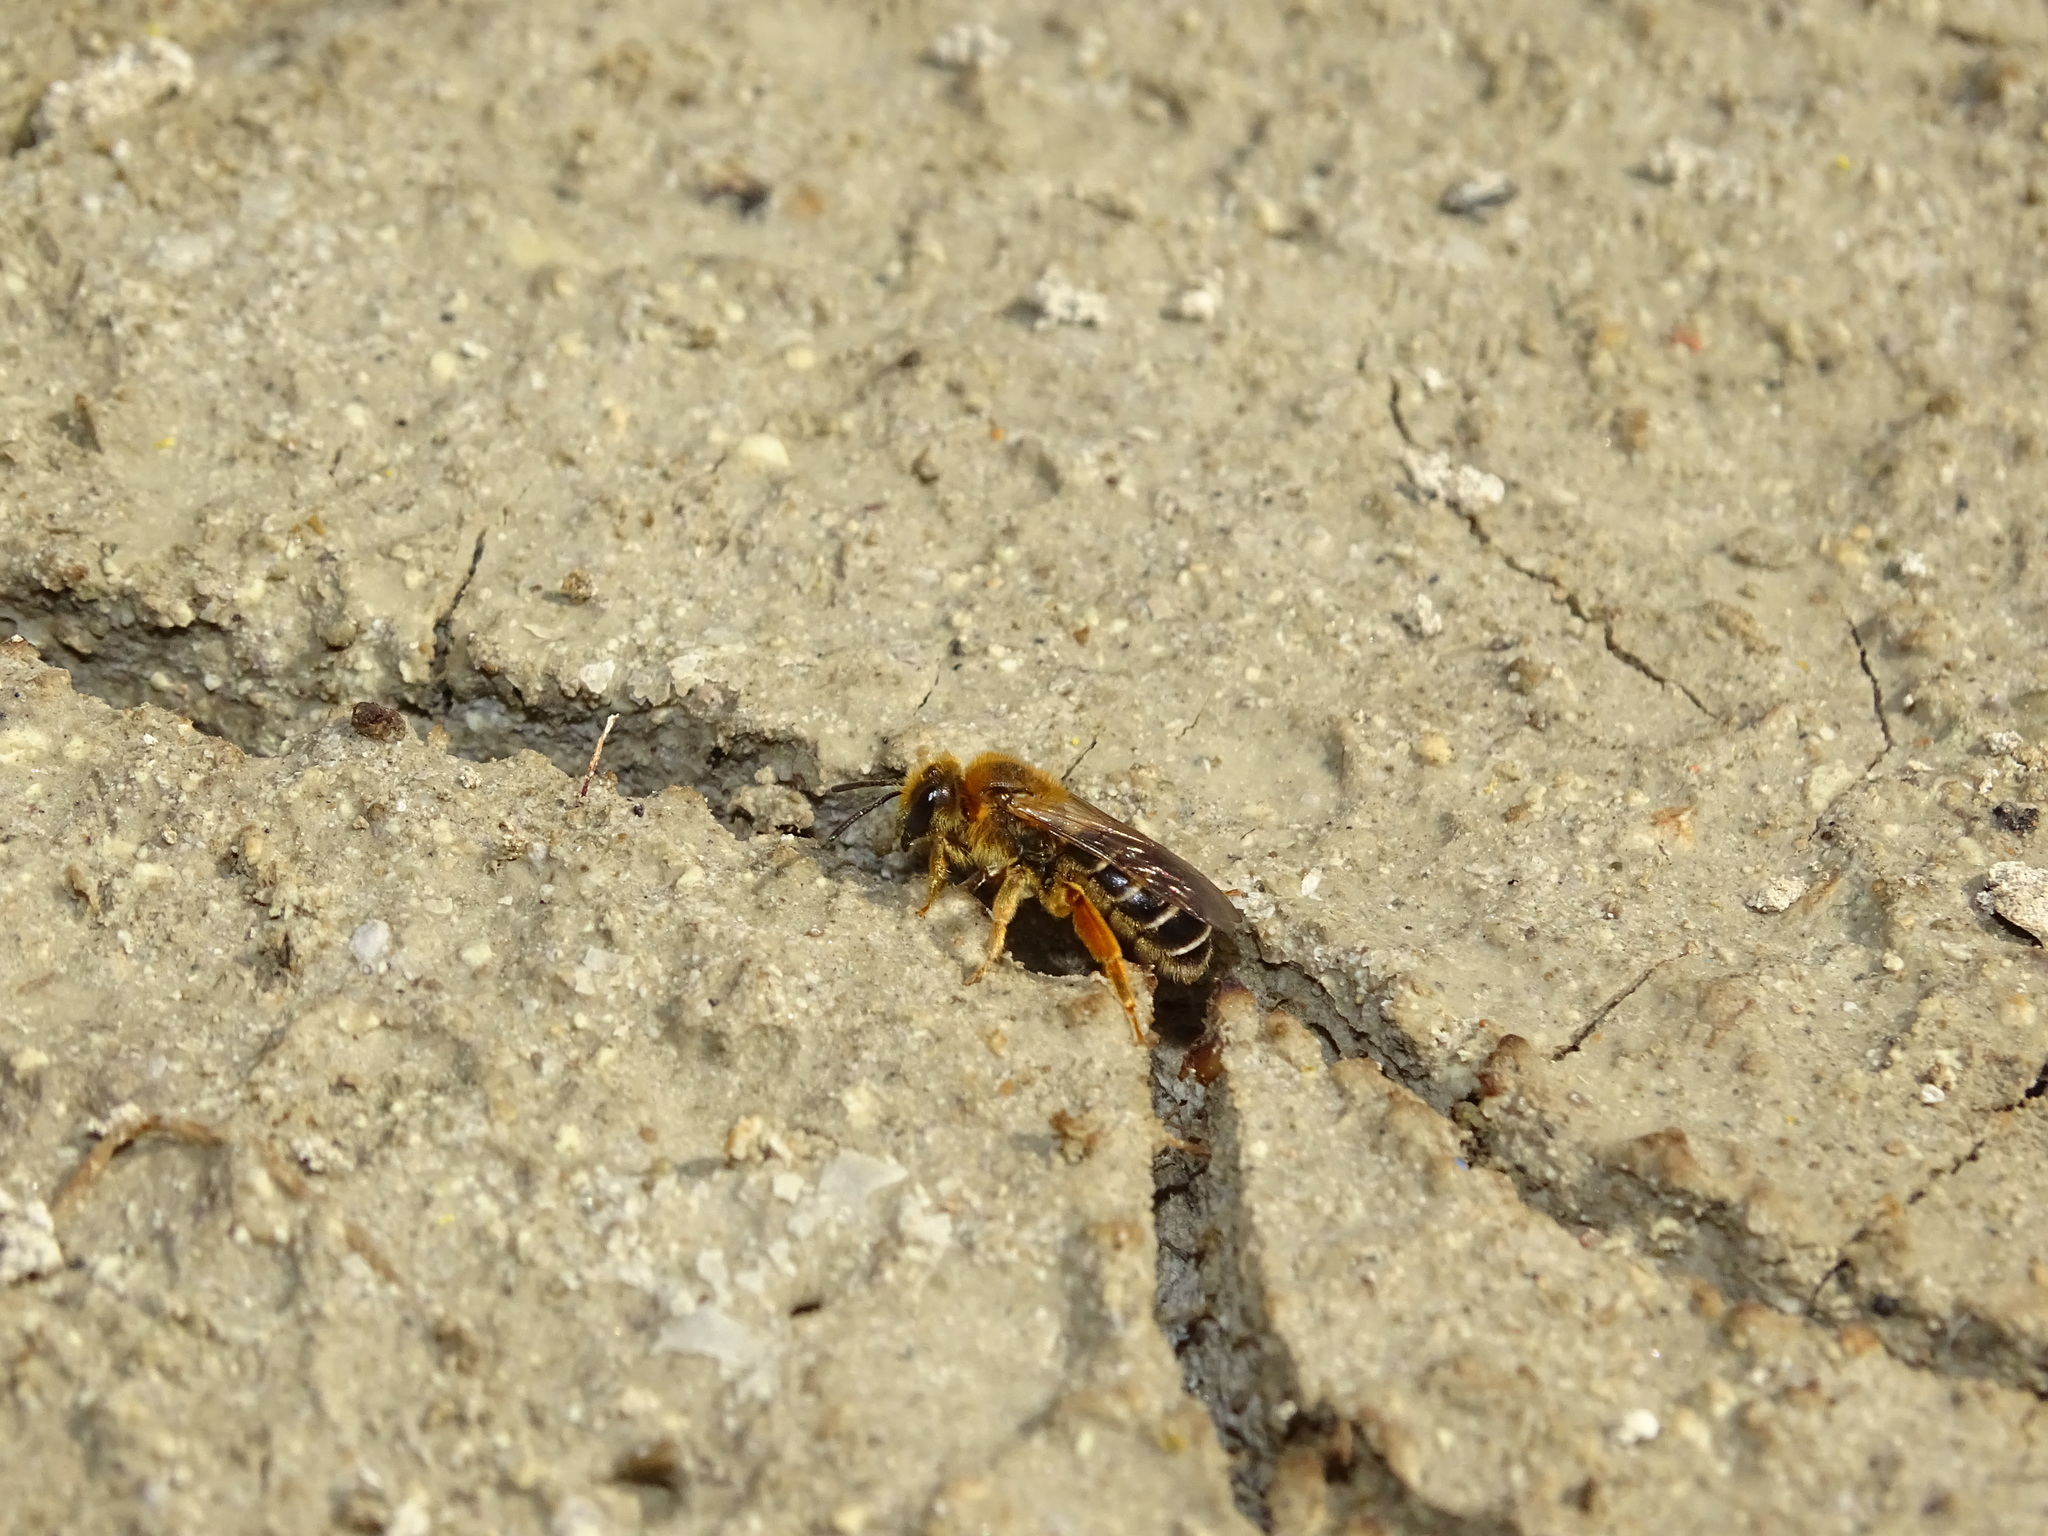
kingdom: Animalia
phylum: Arthropoda
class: Insecta
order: Hymenoptera
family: Halictidae
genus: Halictus
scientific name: Halictus rubicundus
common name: Orange-legged furrow bee
